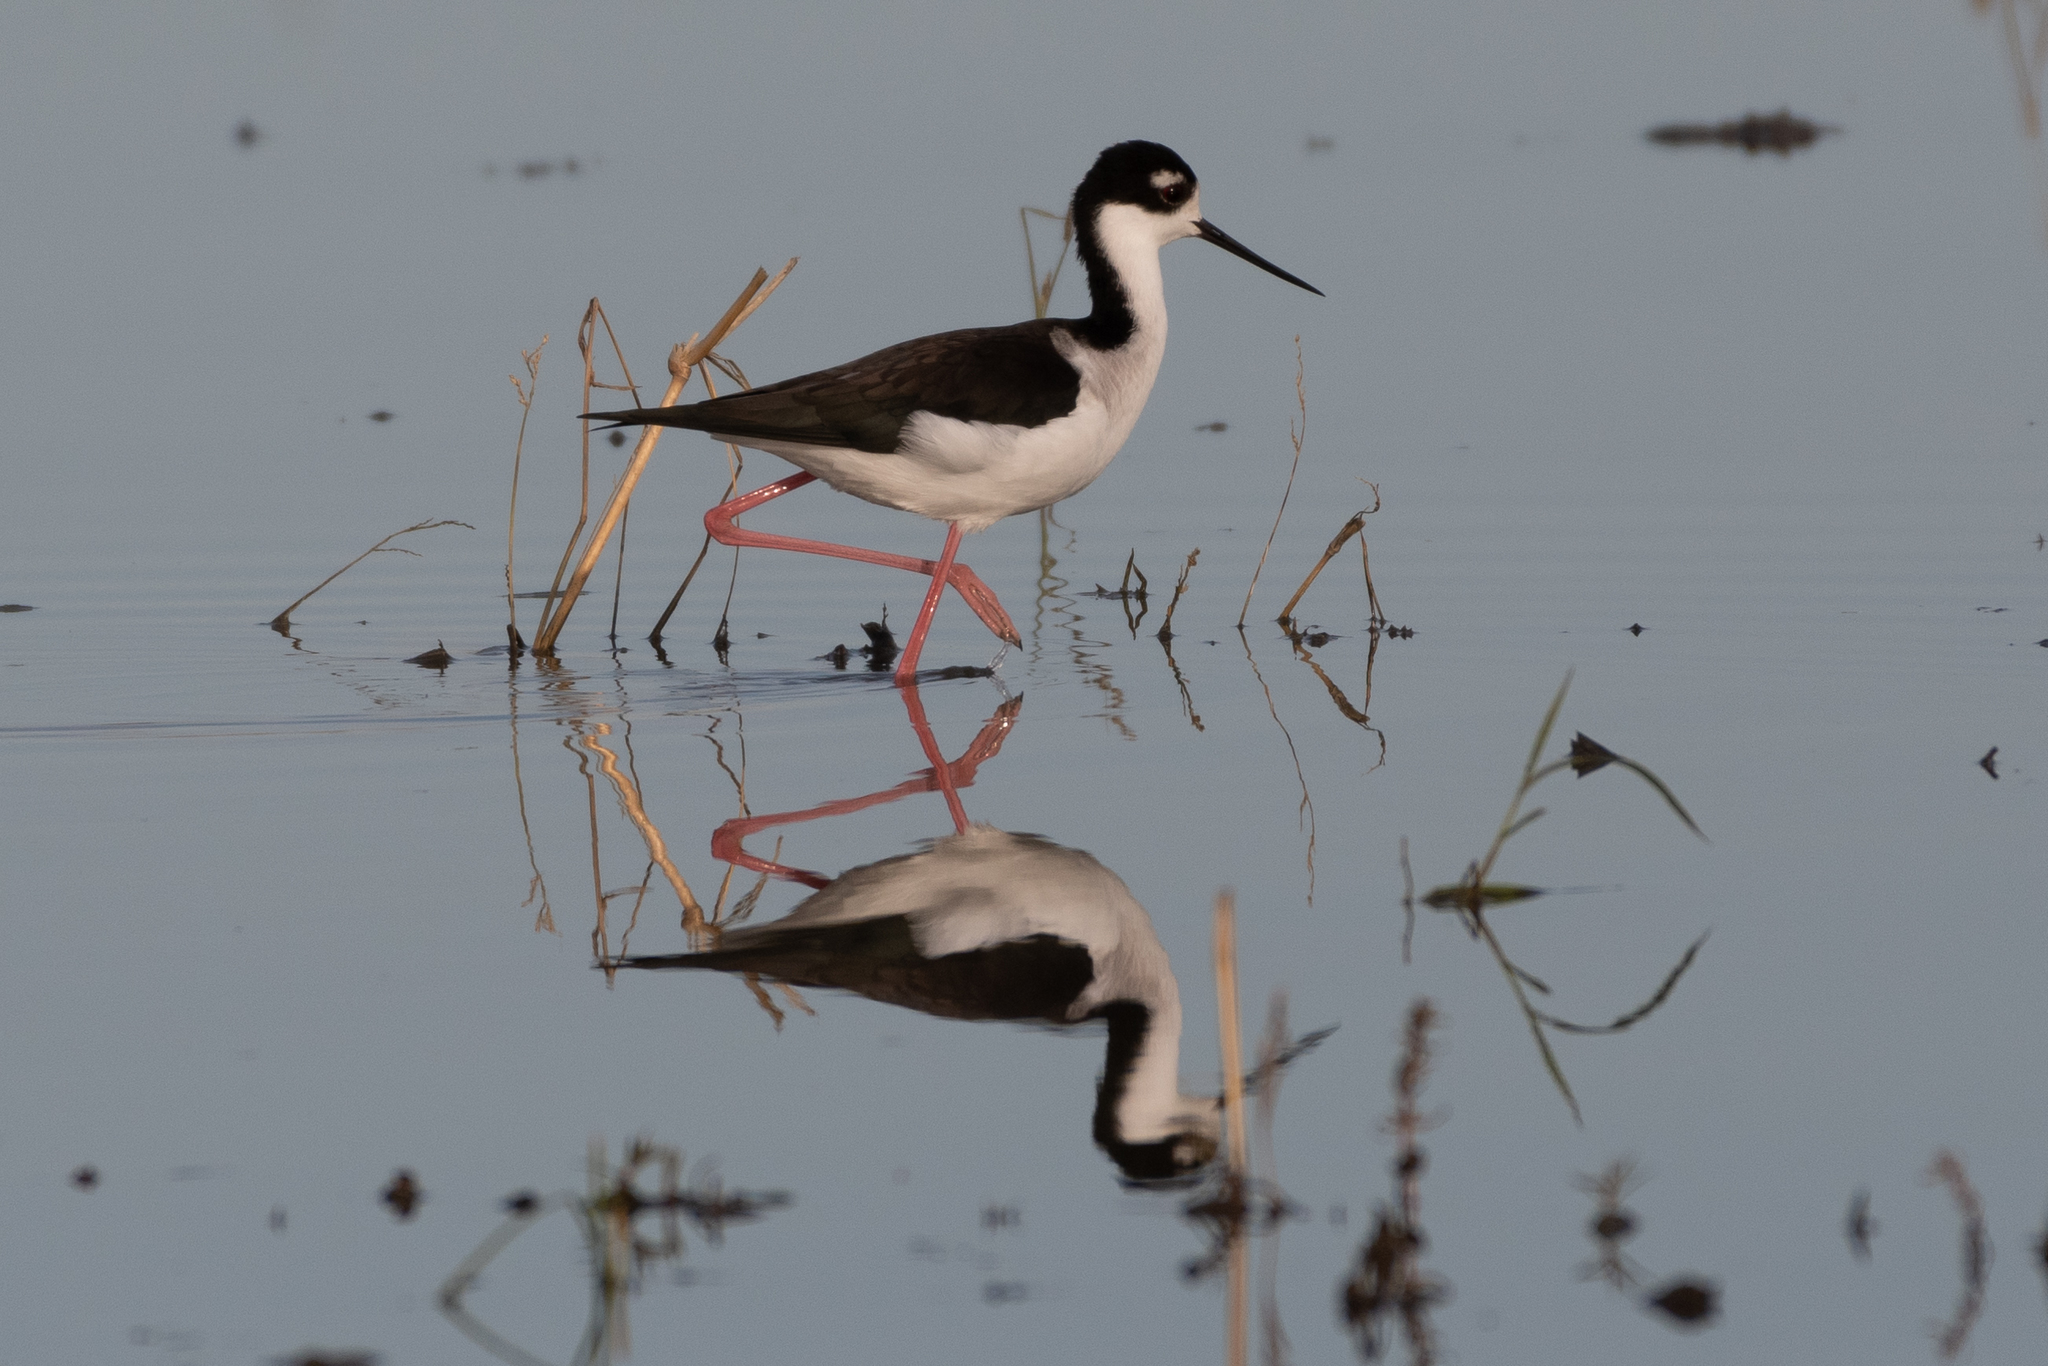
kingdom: Animalia
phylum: Chordata
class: Aves
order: Charadriiformes
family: Recurvirostridae
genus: Himantopus
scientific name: Himantopus mexicanus
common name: Black-necked stilt
